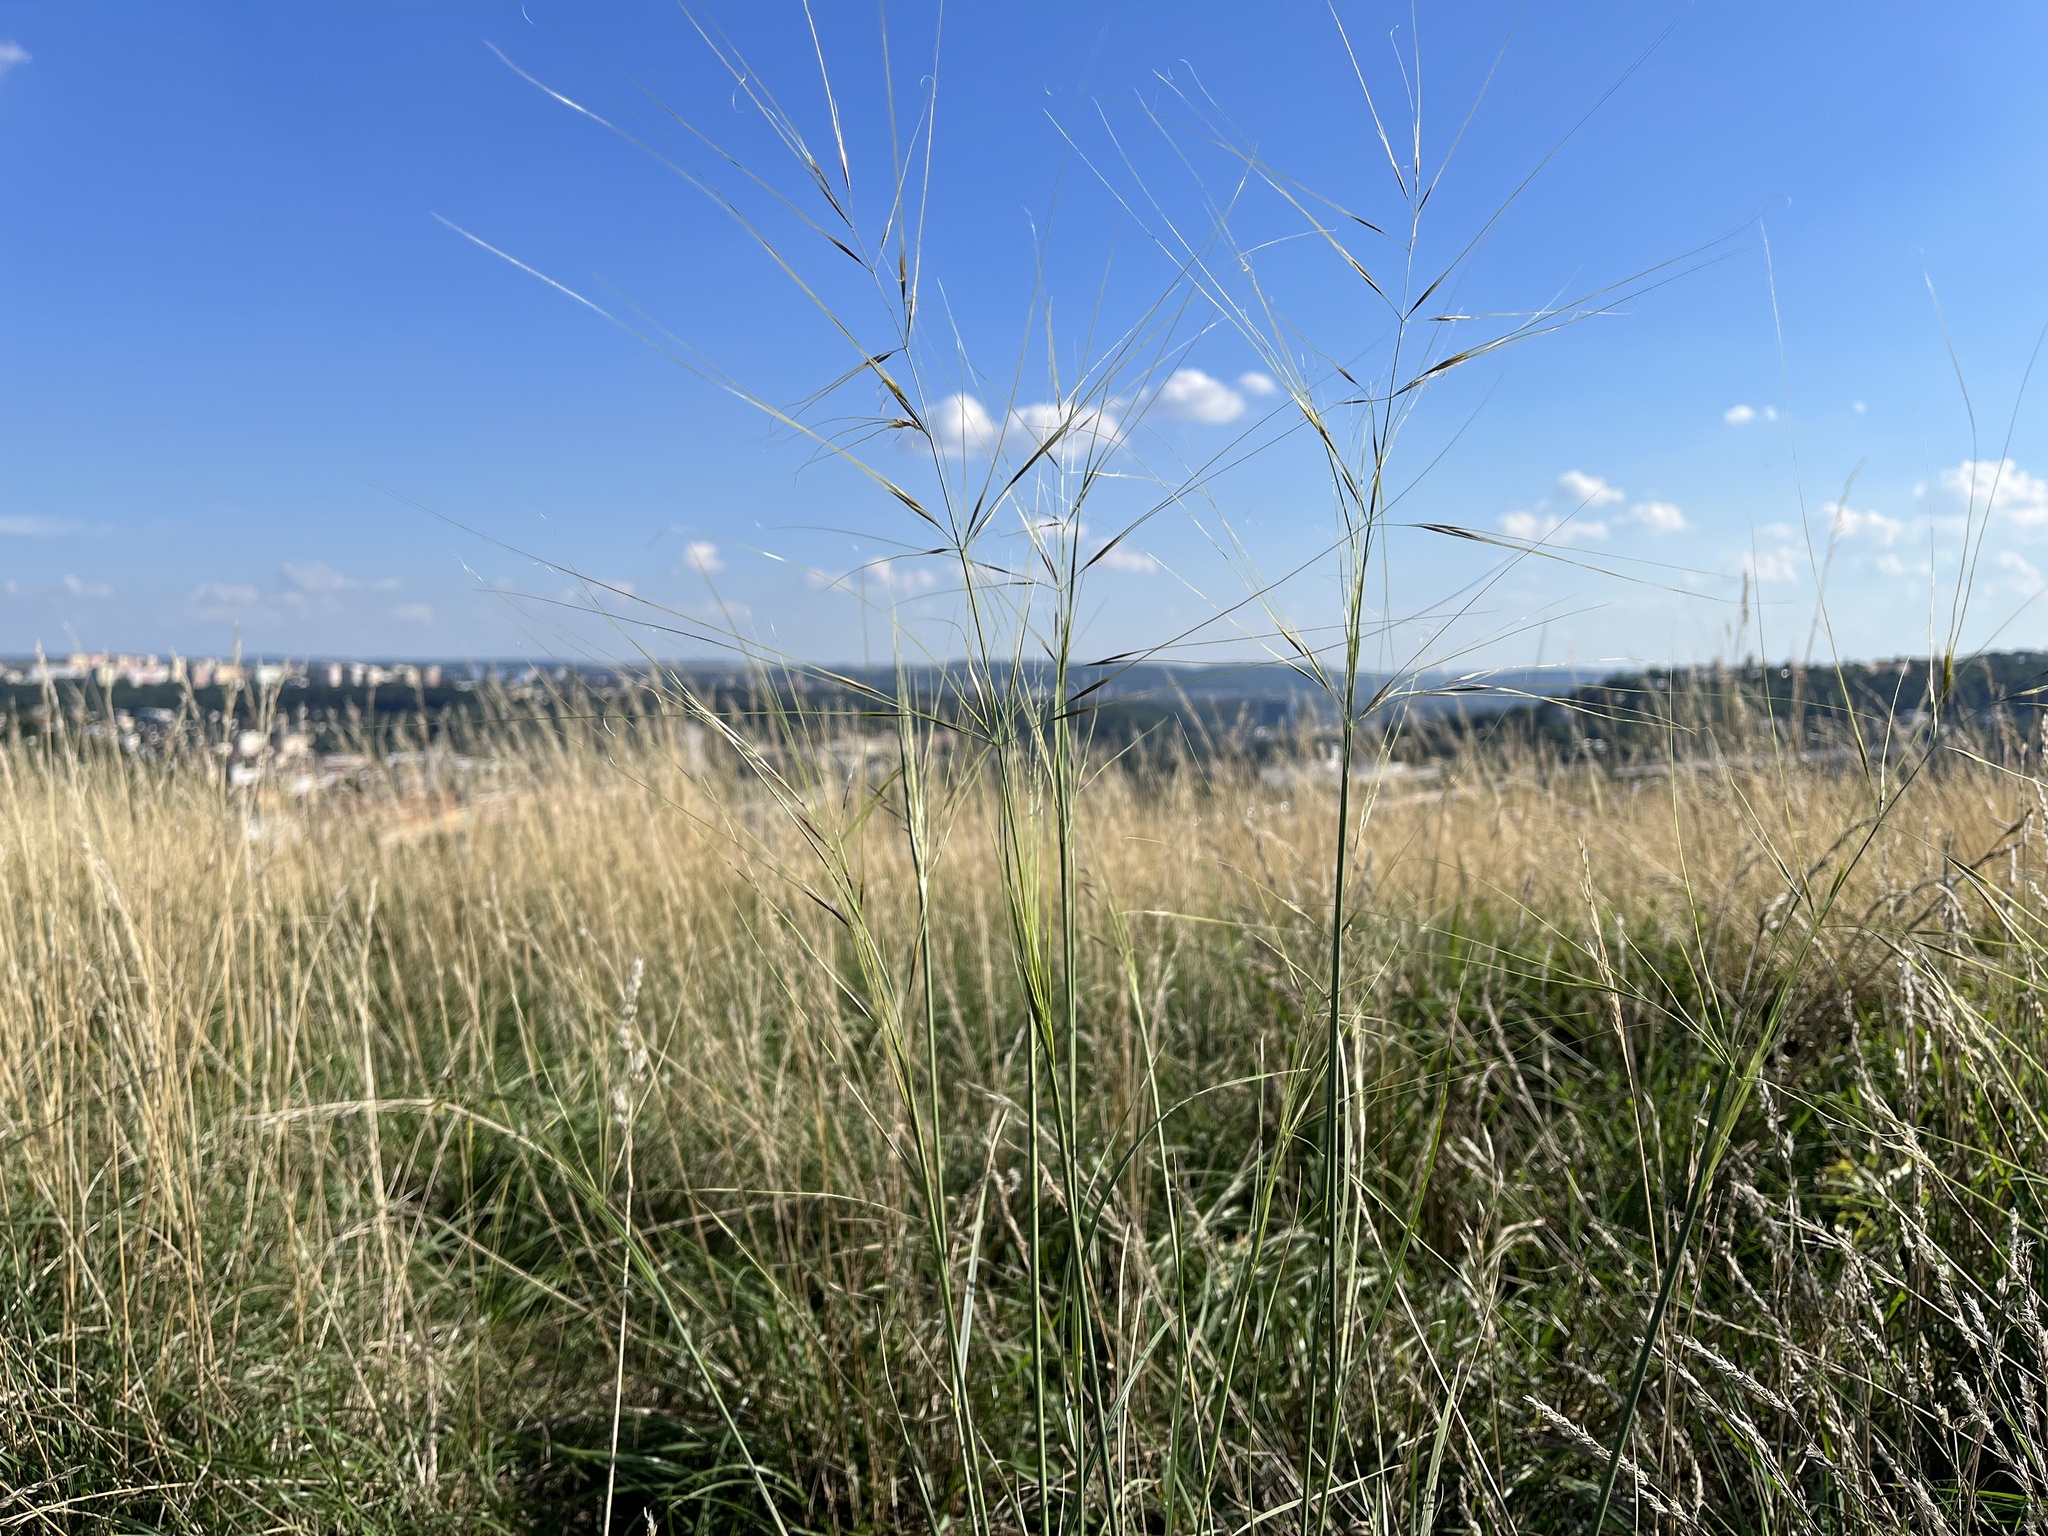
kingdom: Plantae
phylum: Tracheophyta
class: Liliopsida
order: Poales
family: Poaceae
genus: Stipa
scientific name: Stipa capillata
